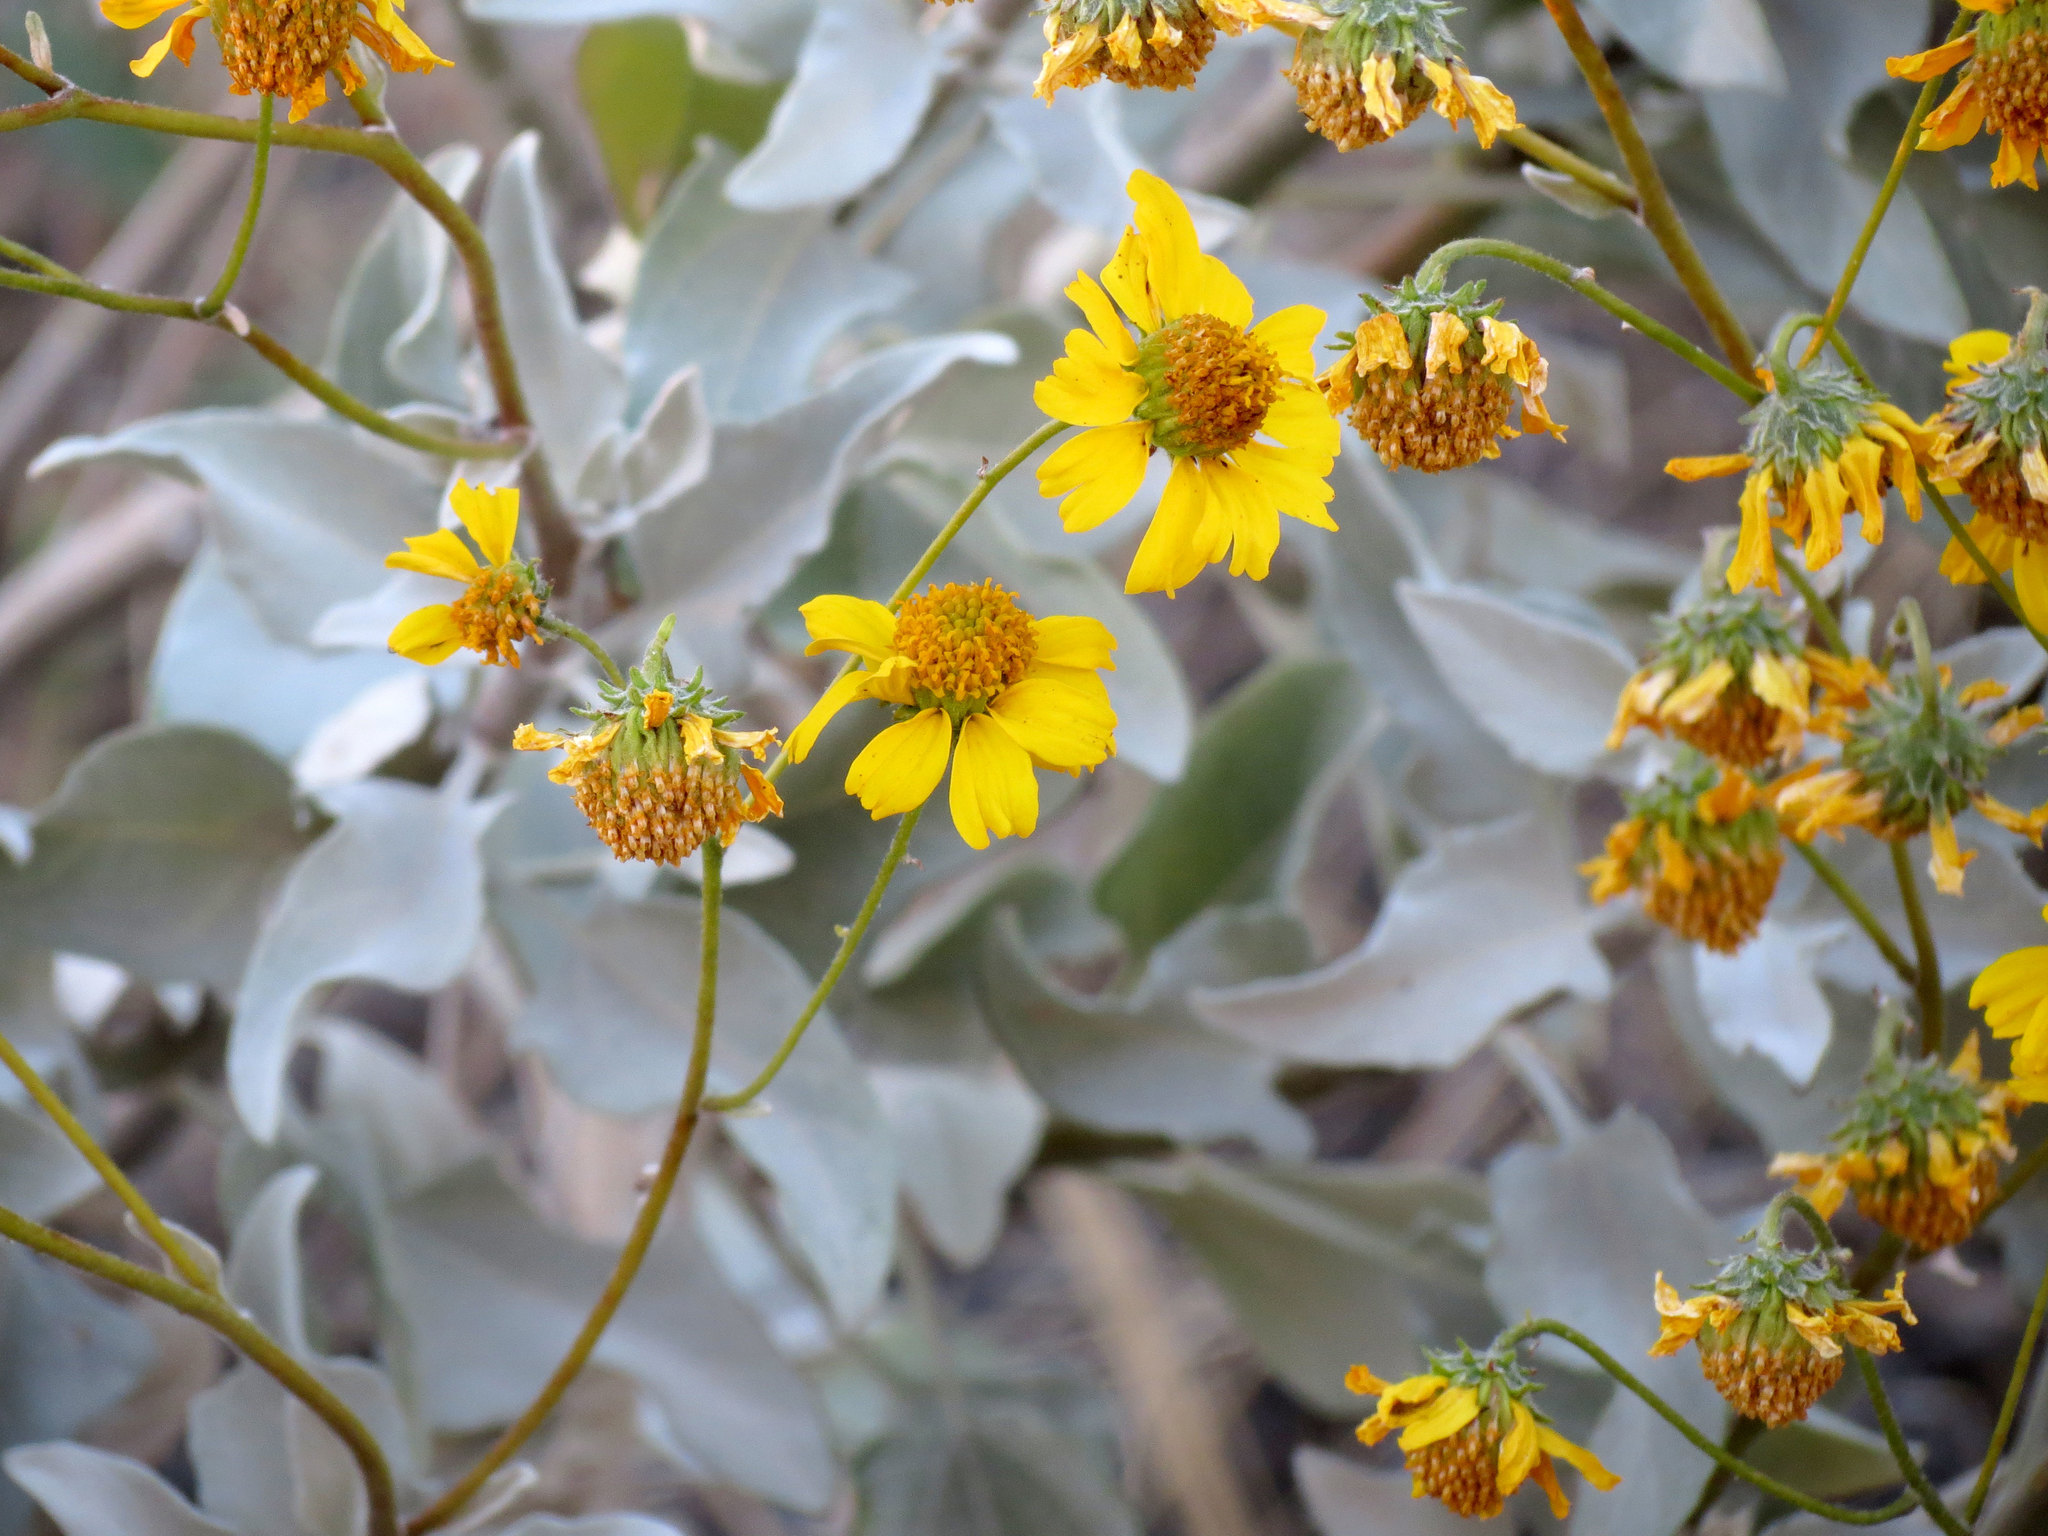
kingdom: Plantae
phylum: Tracheophyta
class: Magnoliopsida
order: Asterales
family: Asteraceae
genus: Encelia
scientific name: Encelia farinosa
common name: Brittlebush
